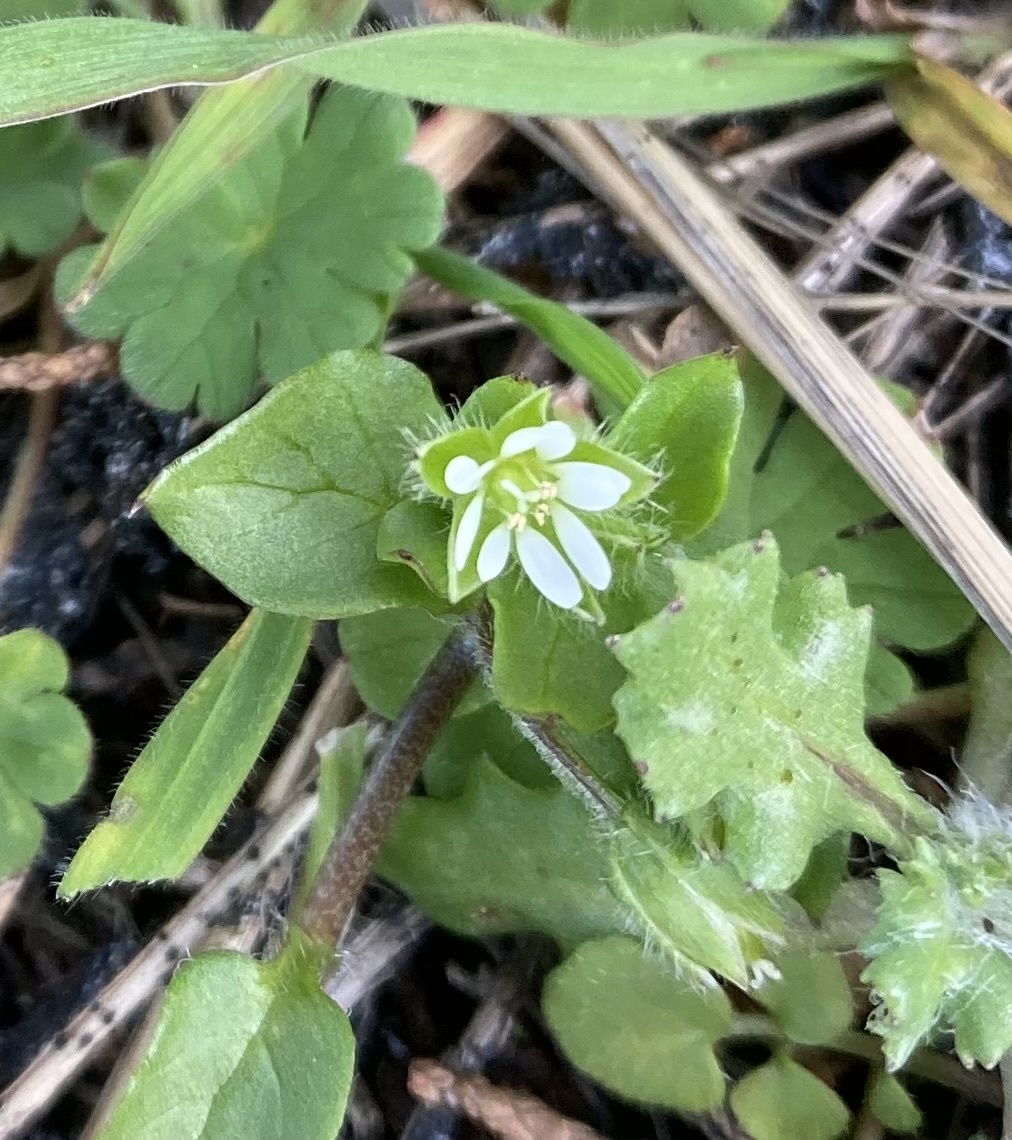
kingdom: Plantae
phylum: Tracheophyta
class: Magnoliopsida
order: Caryophyllales
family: Caryophyllaceae
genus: Stellaria
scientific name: Stellaria media
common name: Common chickweed
